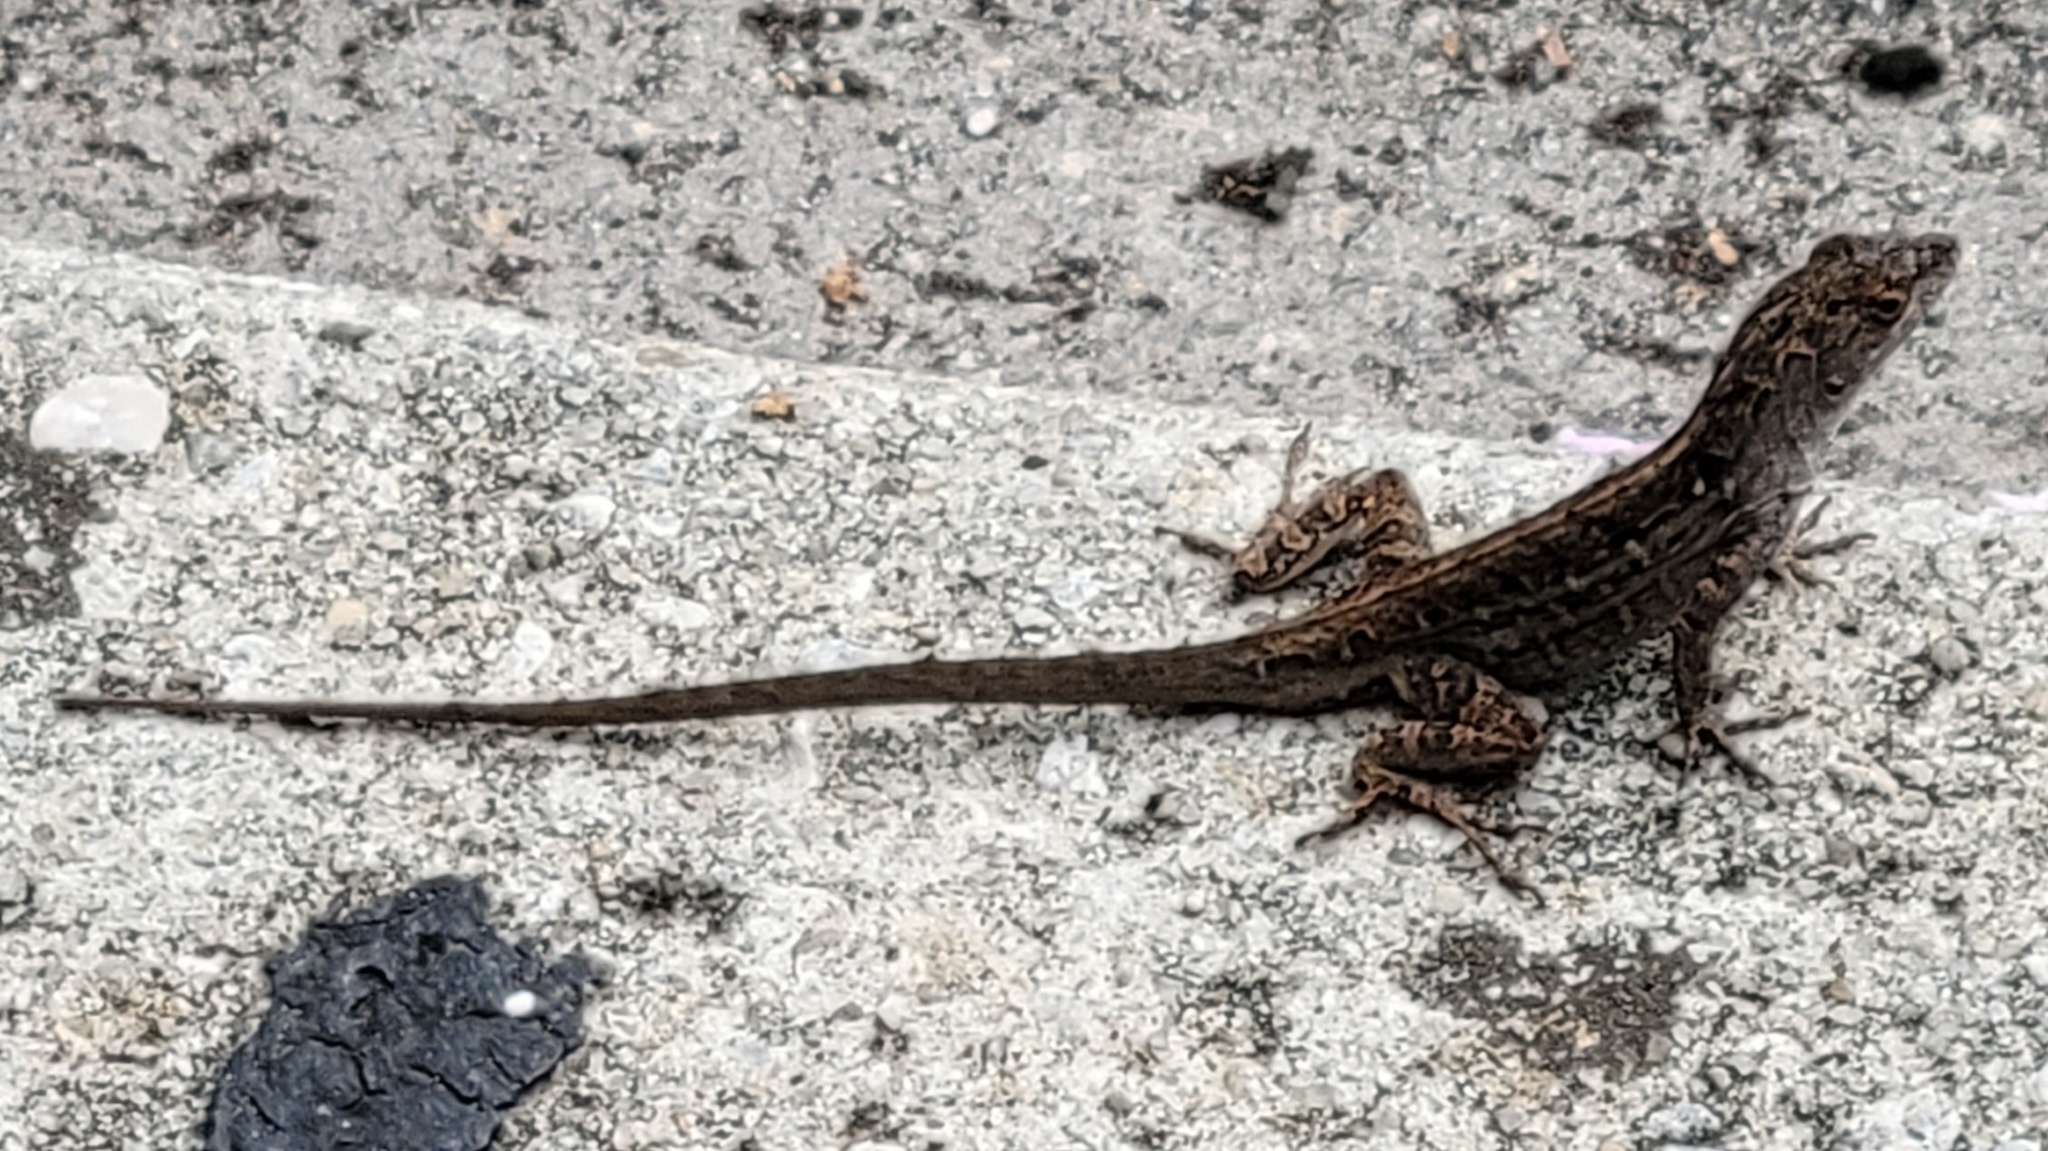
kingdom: Animalia
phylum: Chordata
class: Squamata
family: Dactyloidae
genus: Anolis
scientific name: Anolis sagrei
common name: Brown anole
